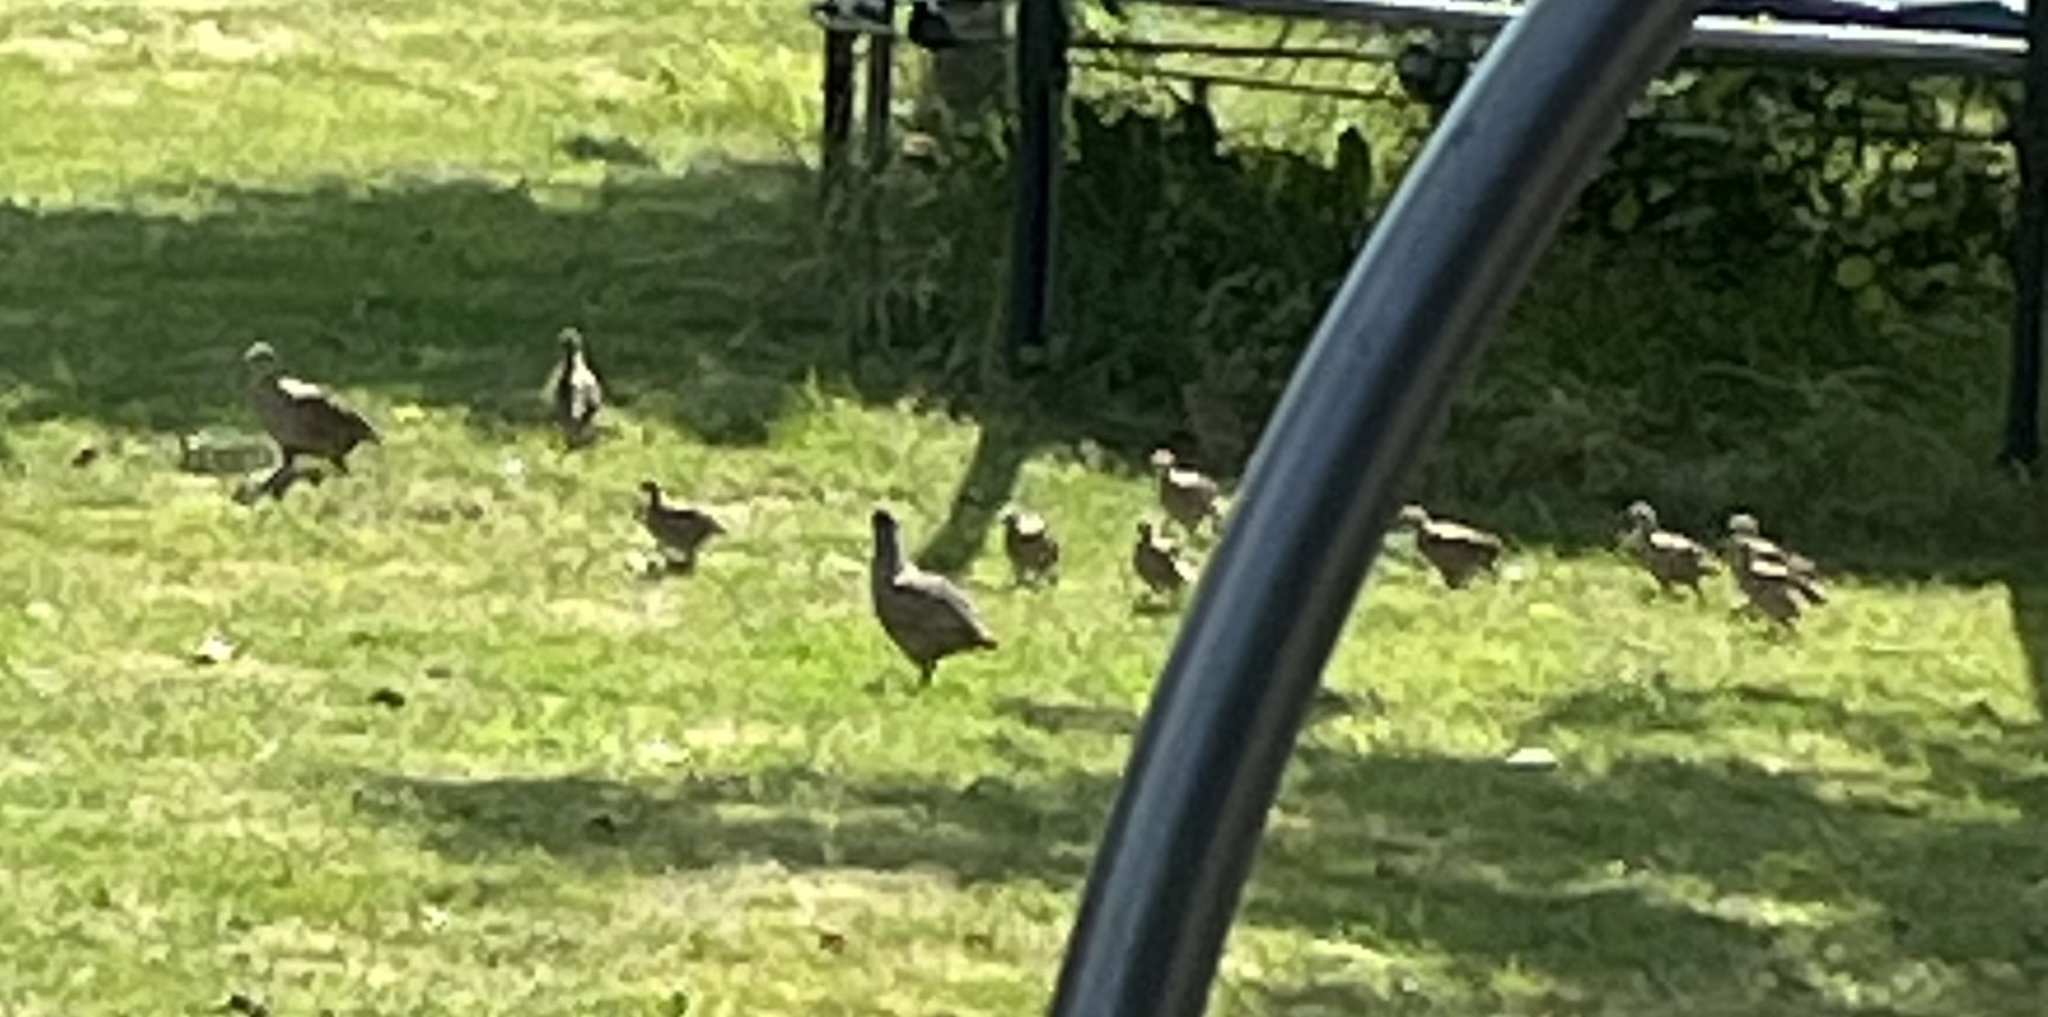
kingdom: Animalia
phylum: Chordata
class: Aves
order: Galliformes
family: Phasianidae
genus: Perdix
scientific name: Perdix perdix
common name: Grey partridge
